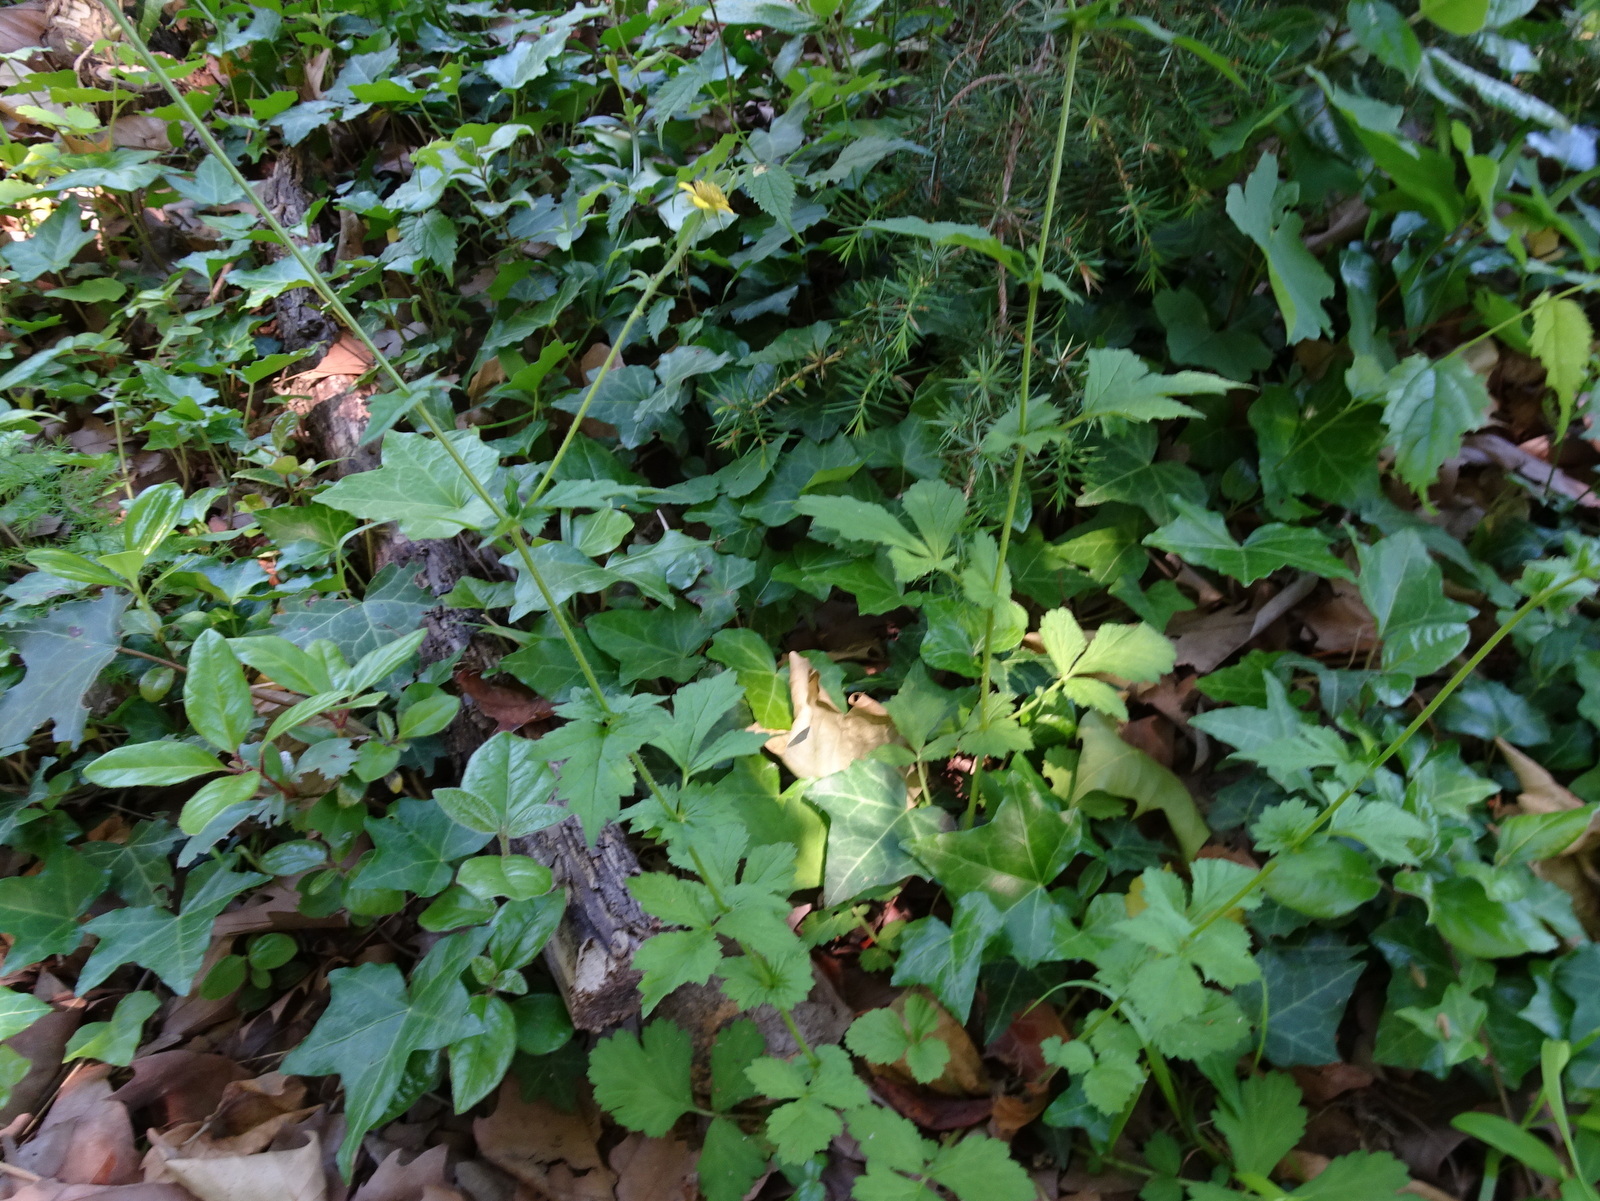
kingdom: Plantae
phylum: Tracheophyta
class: Magnoliopsida
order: Rosales
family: Rosaceae
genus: Geum
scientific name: Geum urbanum
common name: Wood avens
